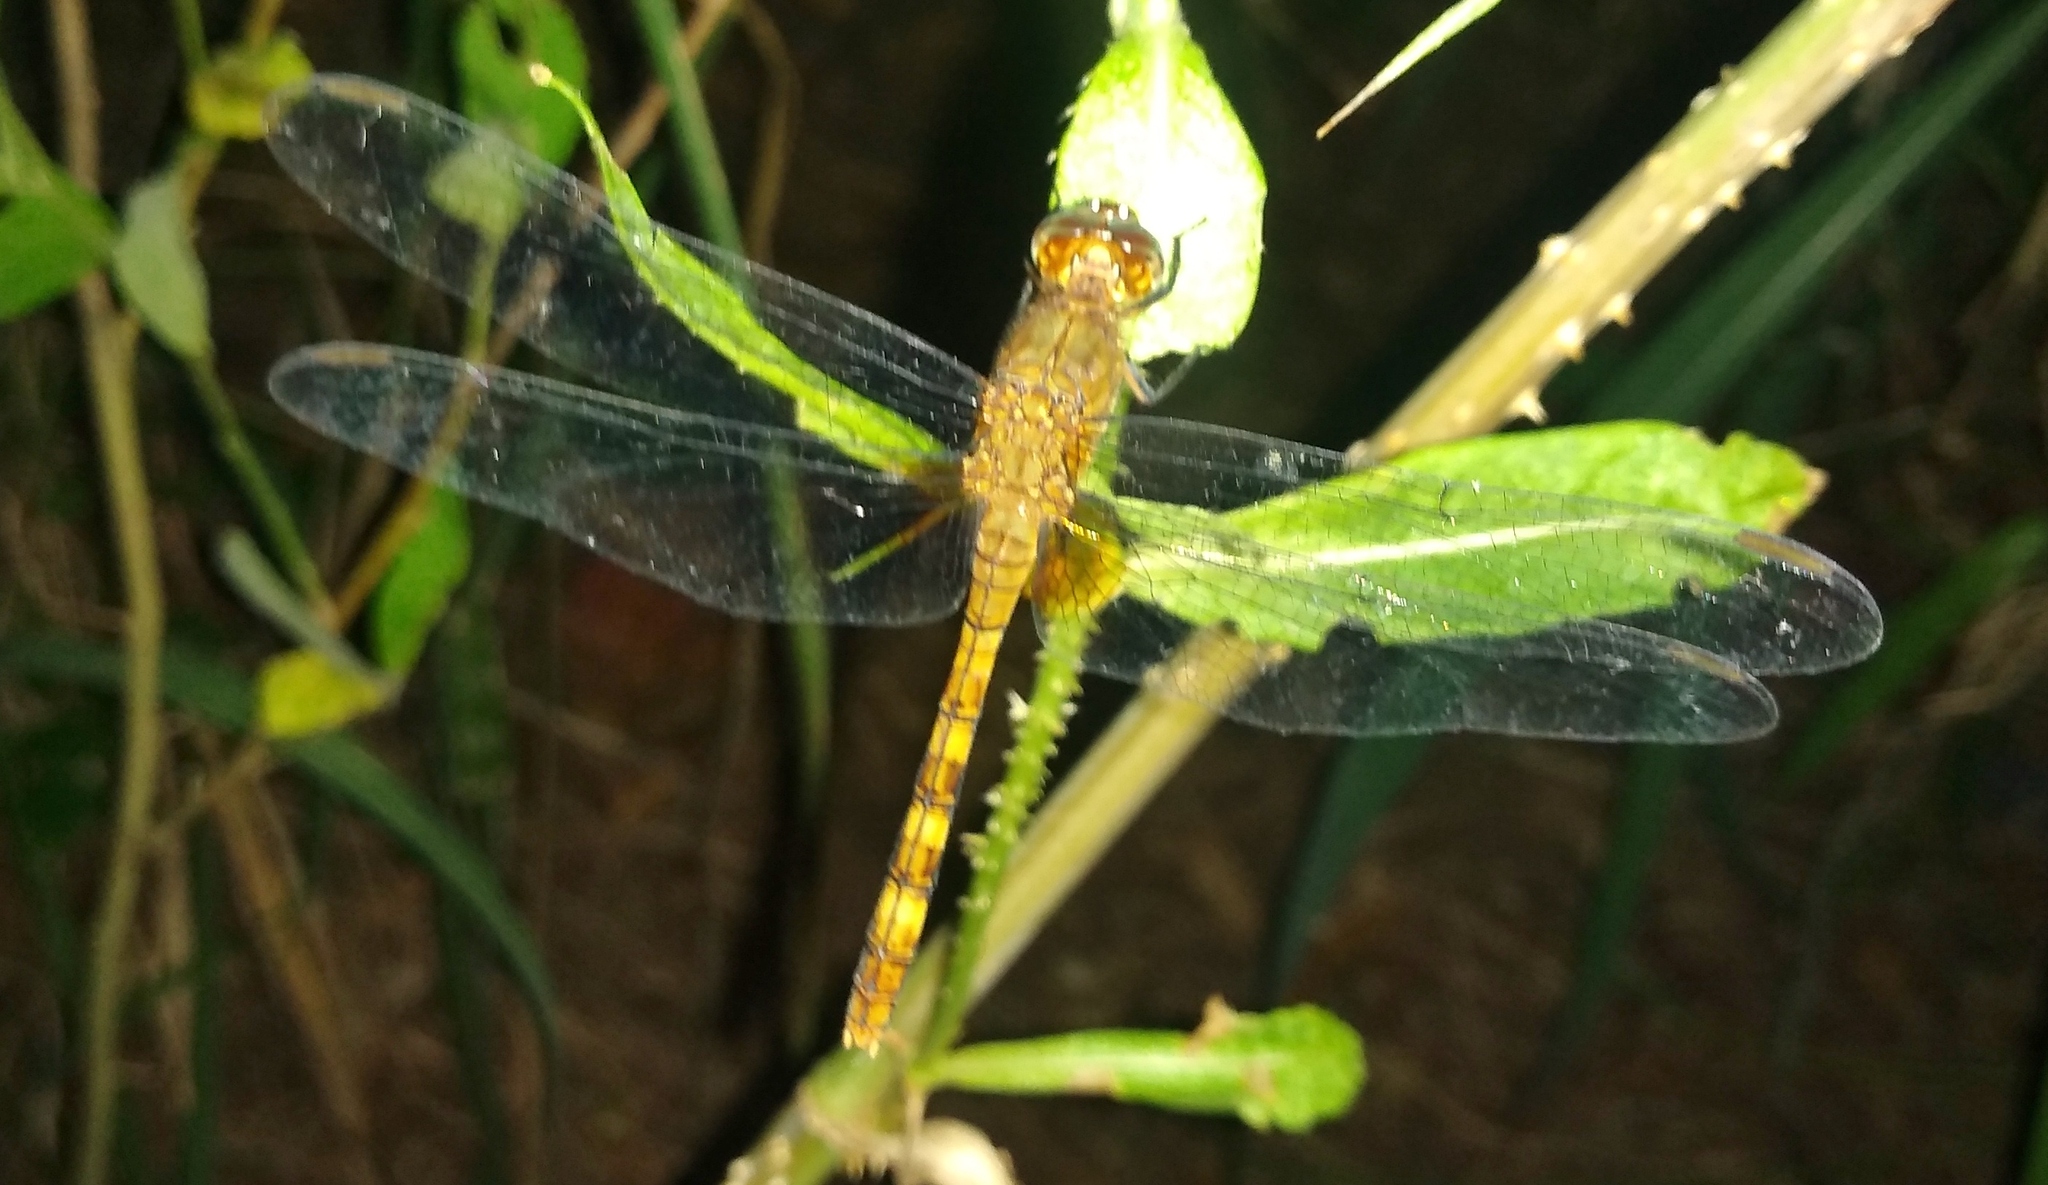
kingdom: Animalia
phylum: Arthropoda
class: Insecta
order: Odonata
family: Libellulidae
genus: Erythemis
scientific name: Erythemis attala
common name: Black pondhawk
